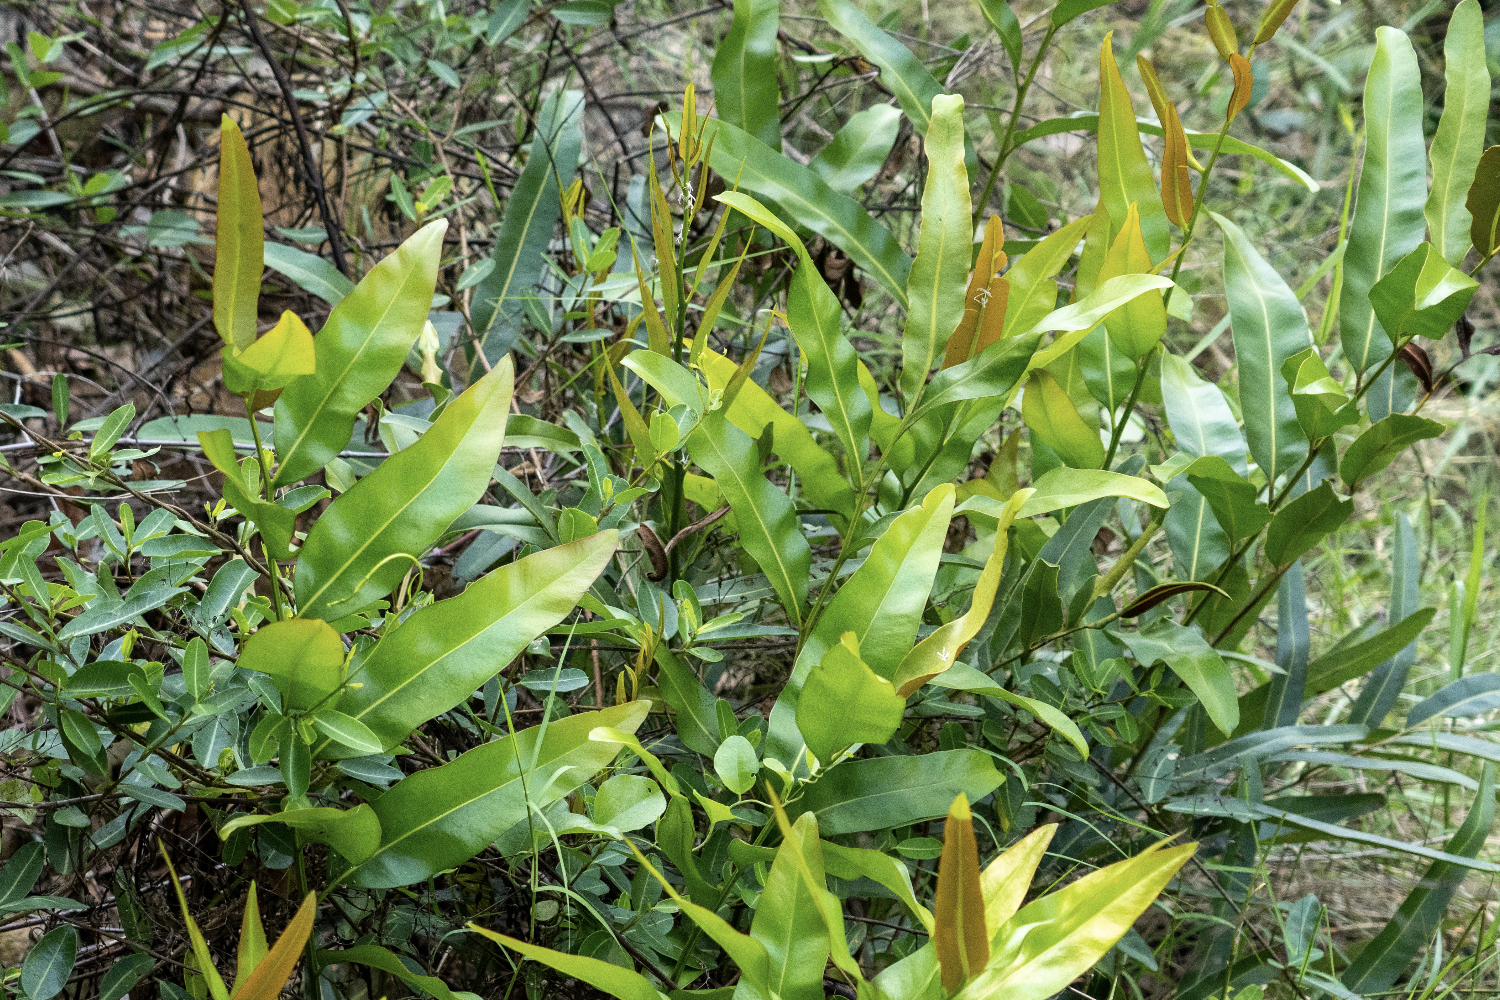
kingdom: Plantae
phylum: Tracheophyta
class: Polypodiopsida
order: Polypodiales
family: Pteridaceae
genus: Acrostichum
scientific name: Acrostichum aureum
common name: Leather fern
